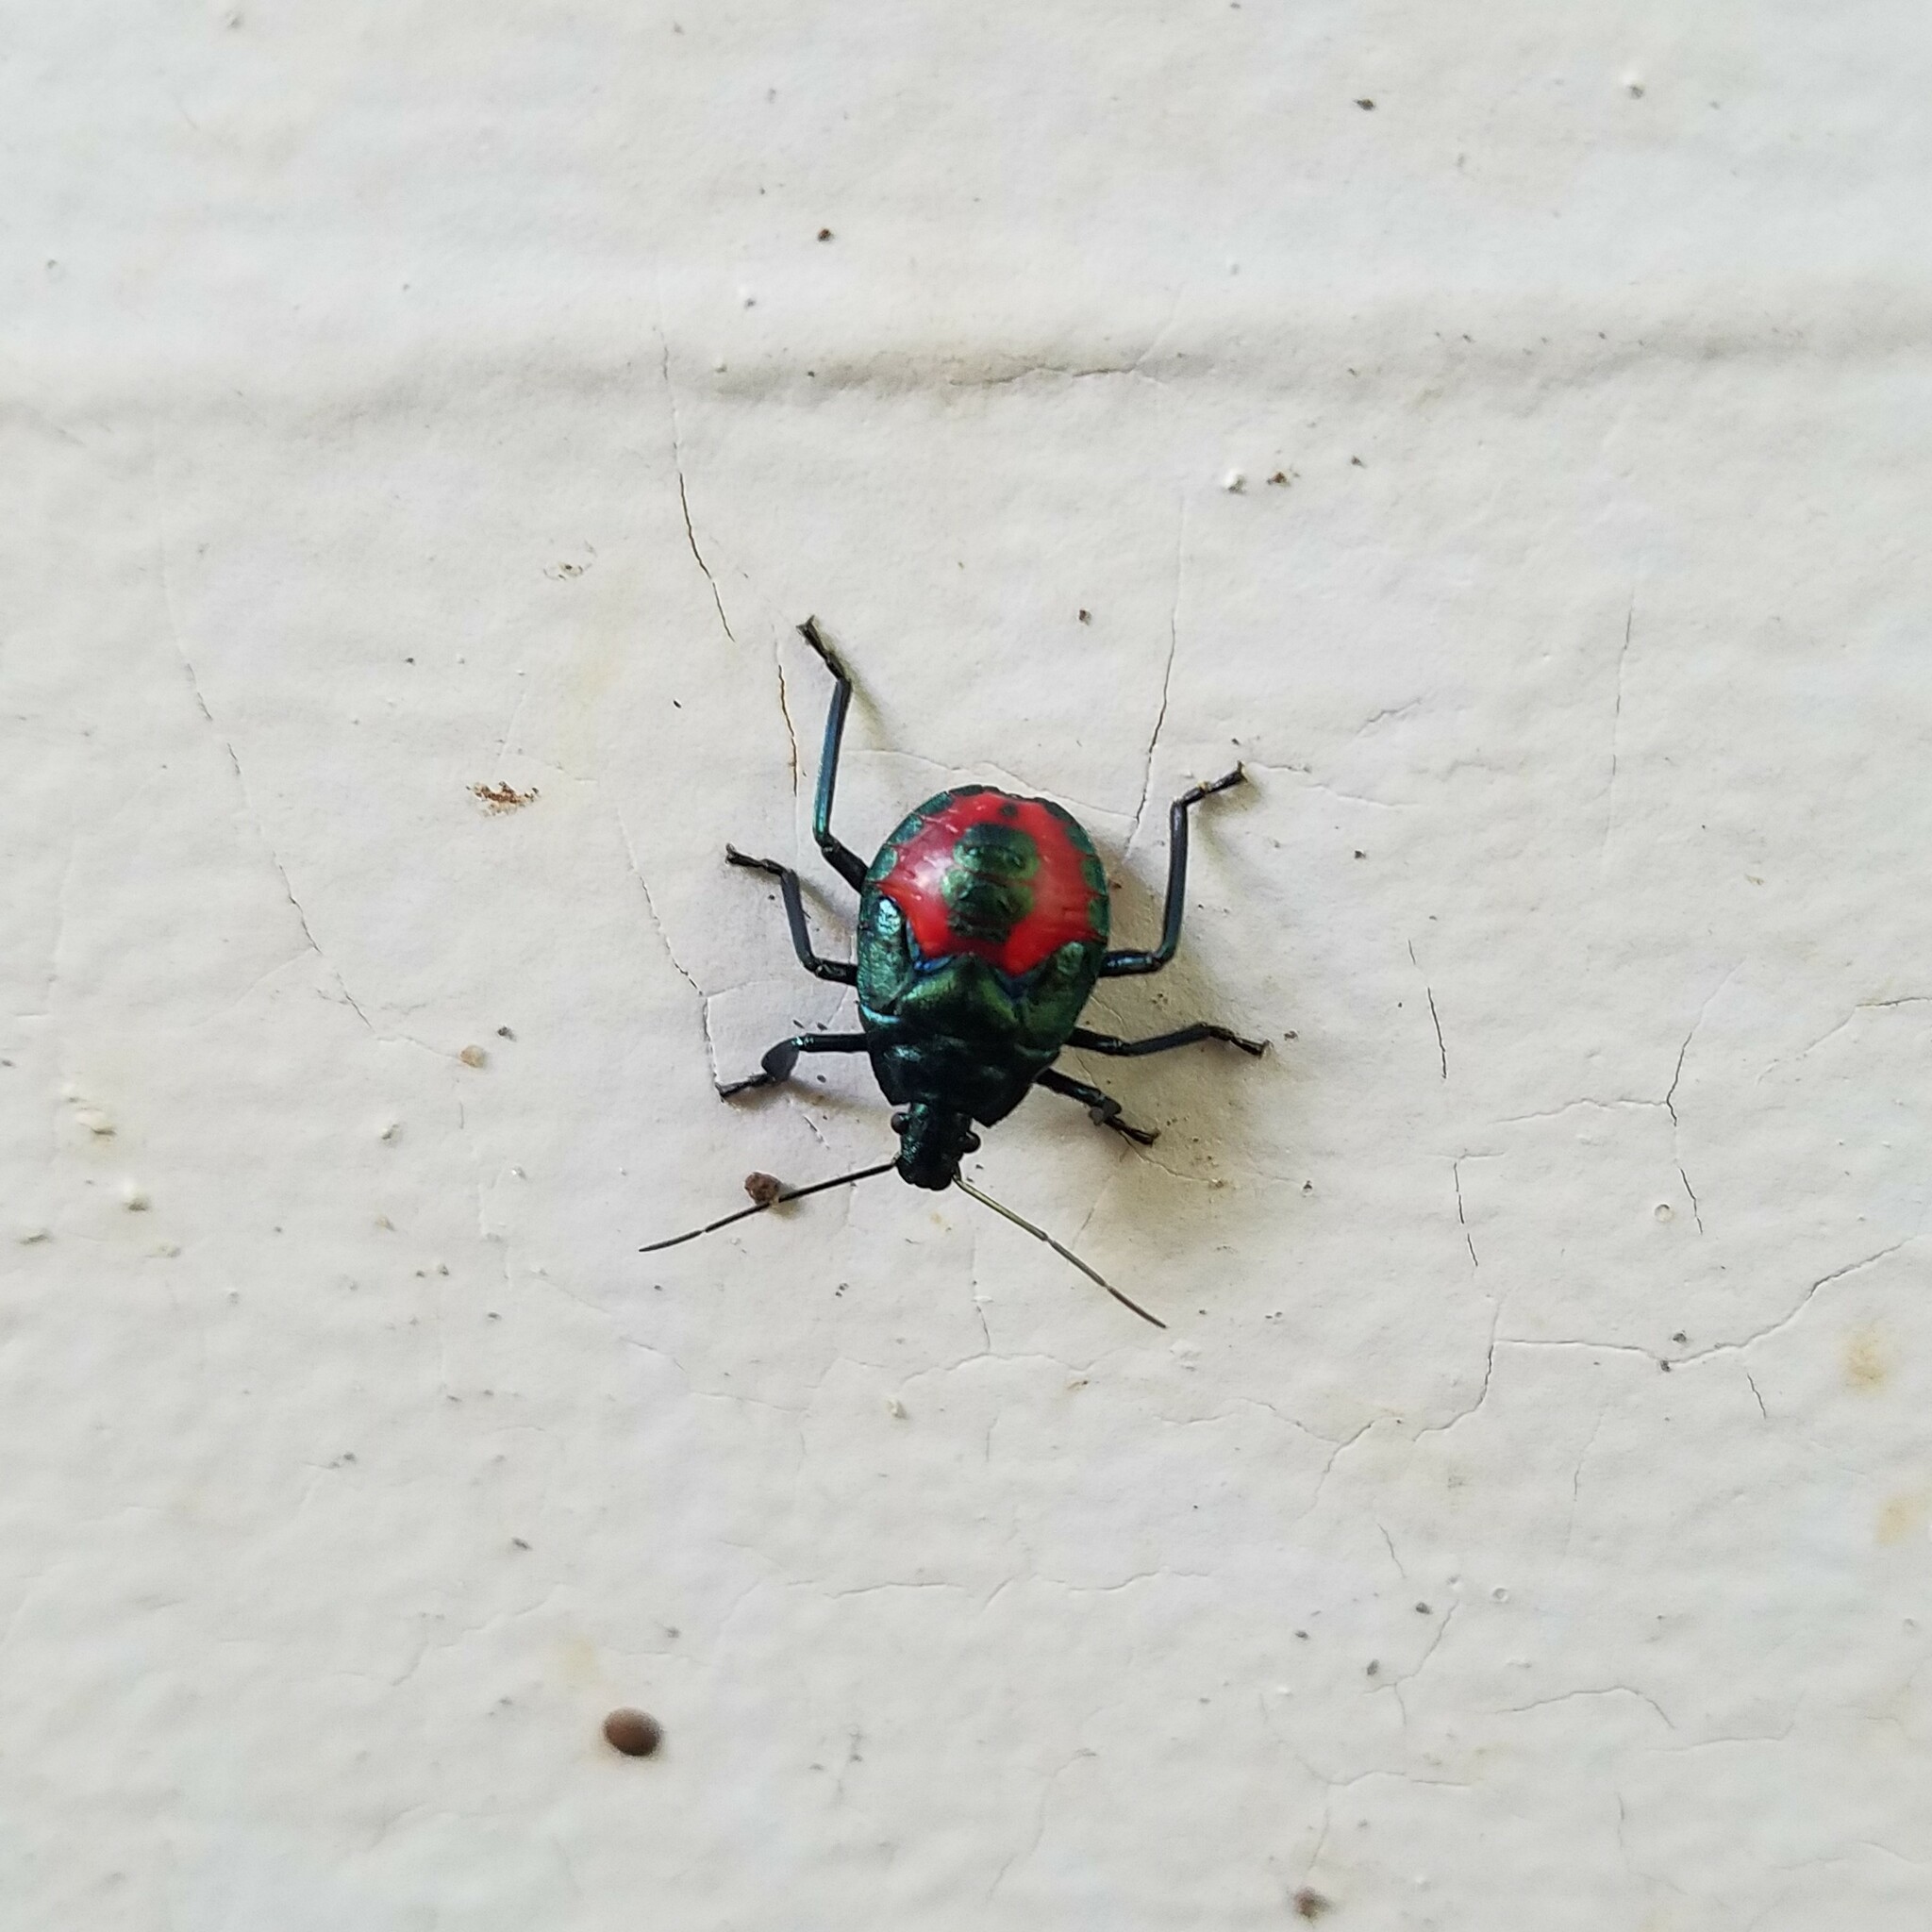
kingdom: Animalia
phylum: Arthropoda
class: Insecta
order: Hemiptera
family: Pentatomidae
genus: Euthyrhynchus
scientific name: Euthyrhynchus floridanus
